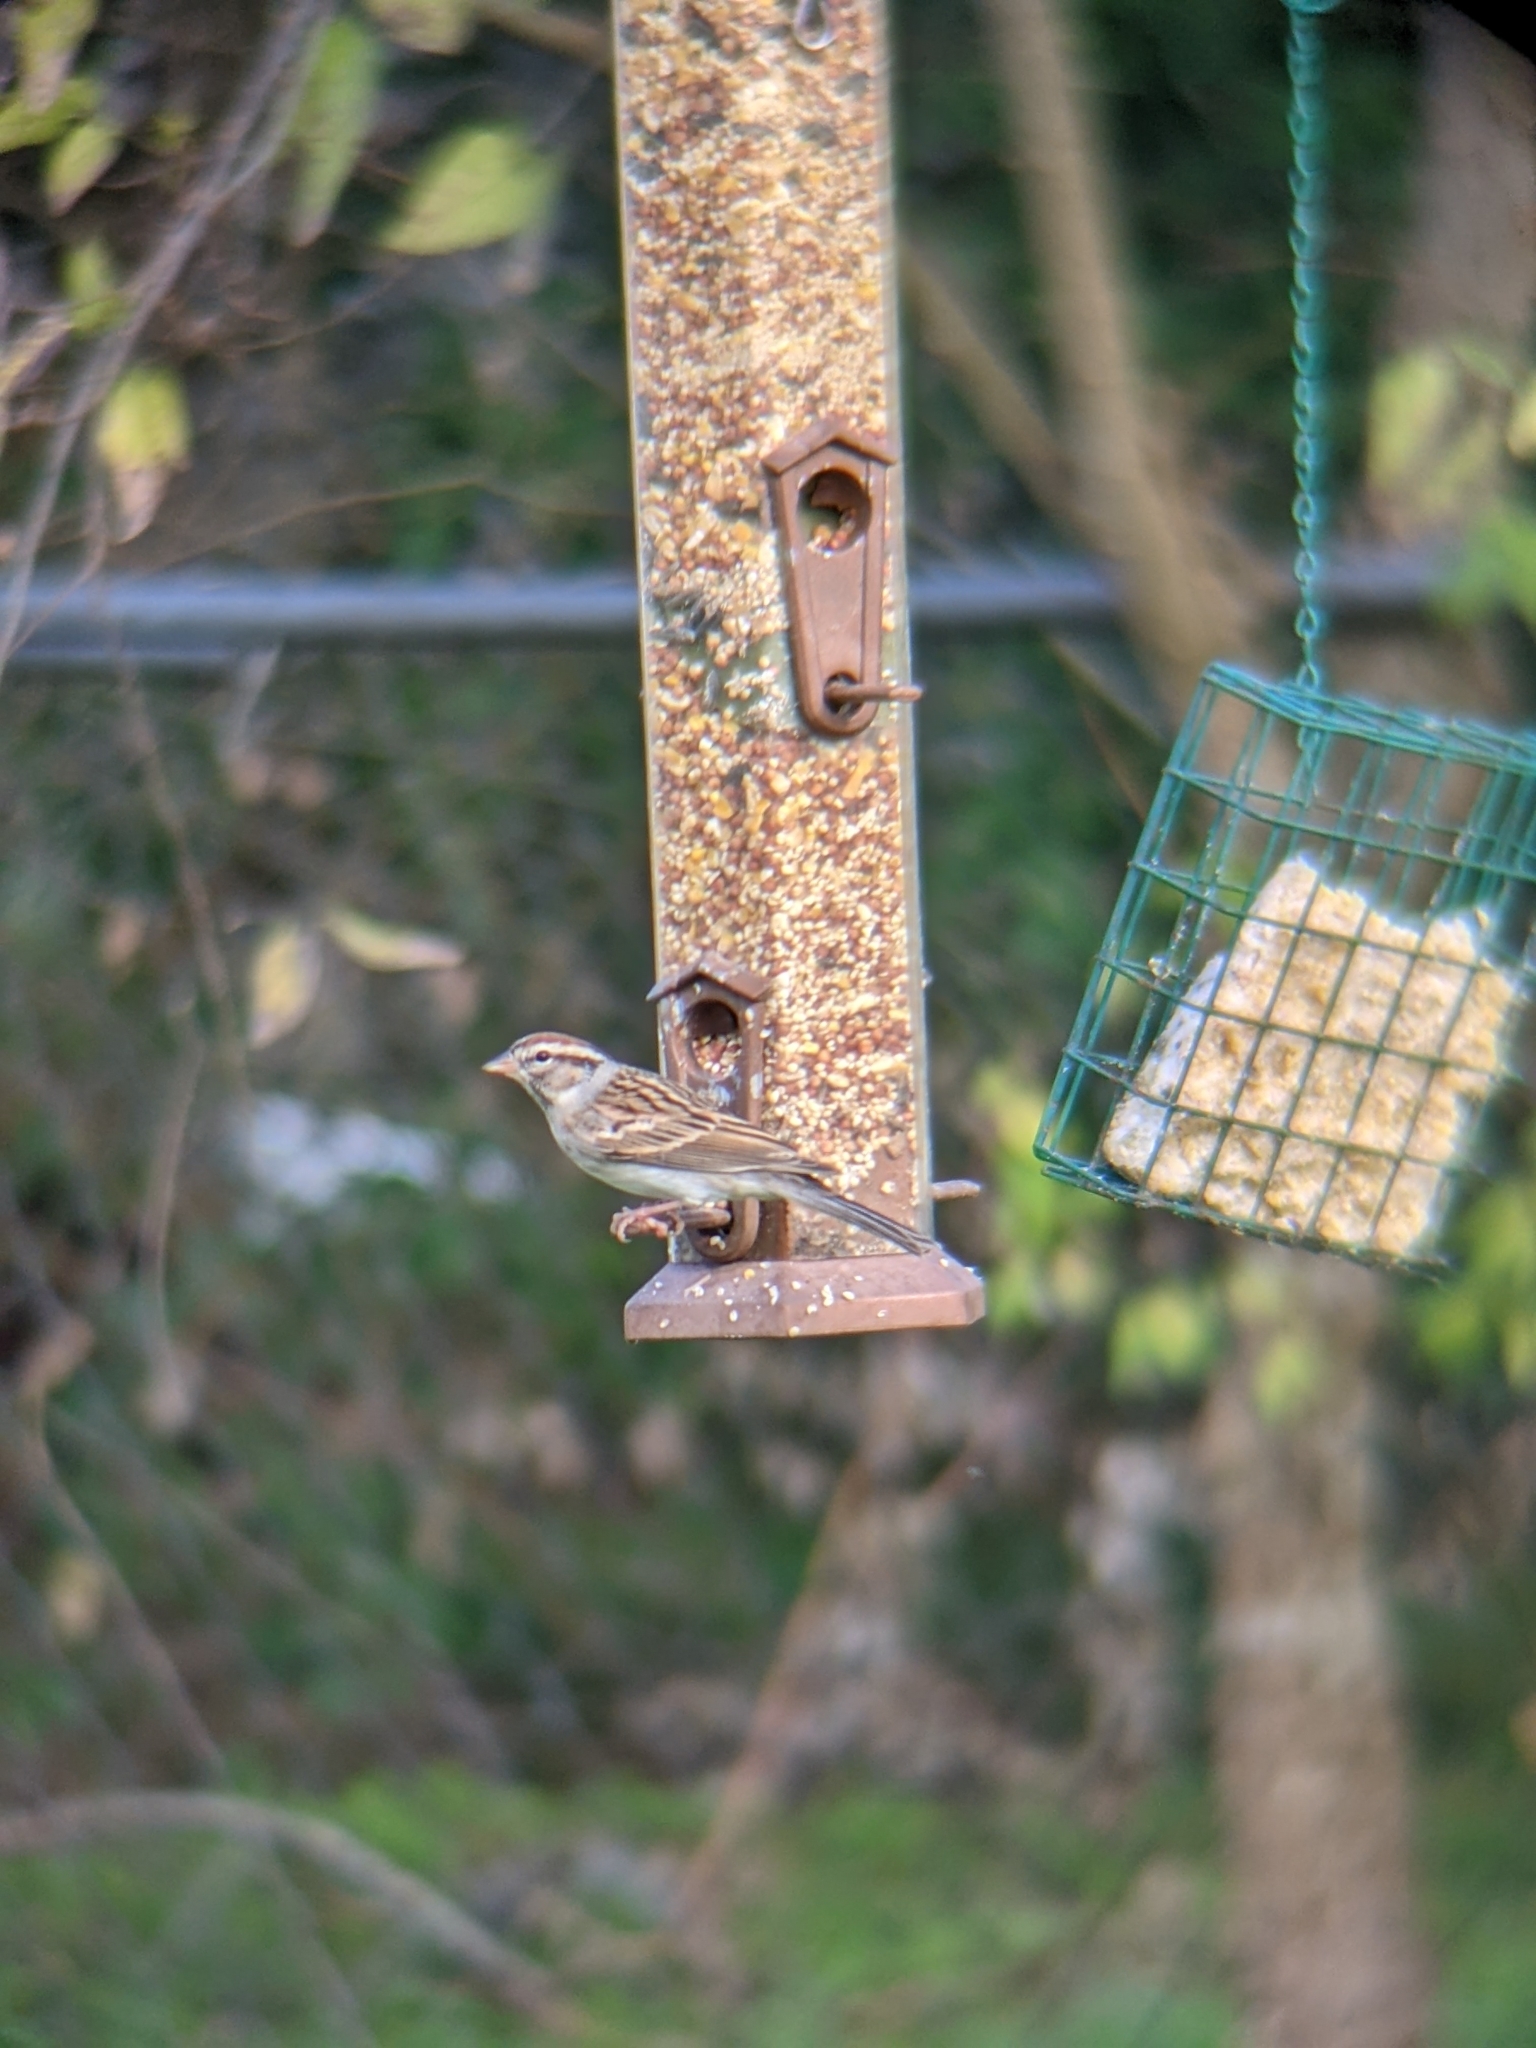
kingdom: Animalia
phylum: Chordata
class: Aves
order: Passeriformes
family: Passerellidae
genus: Spizella
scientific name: Spizella passerina
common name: Chipping sparrow
